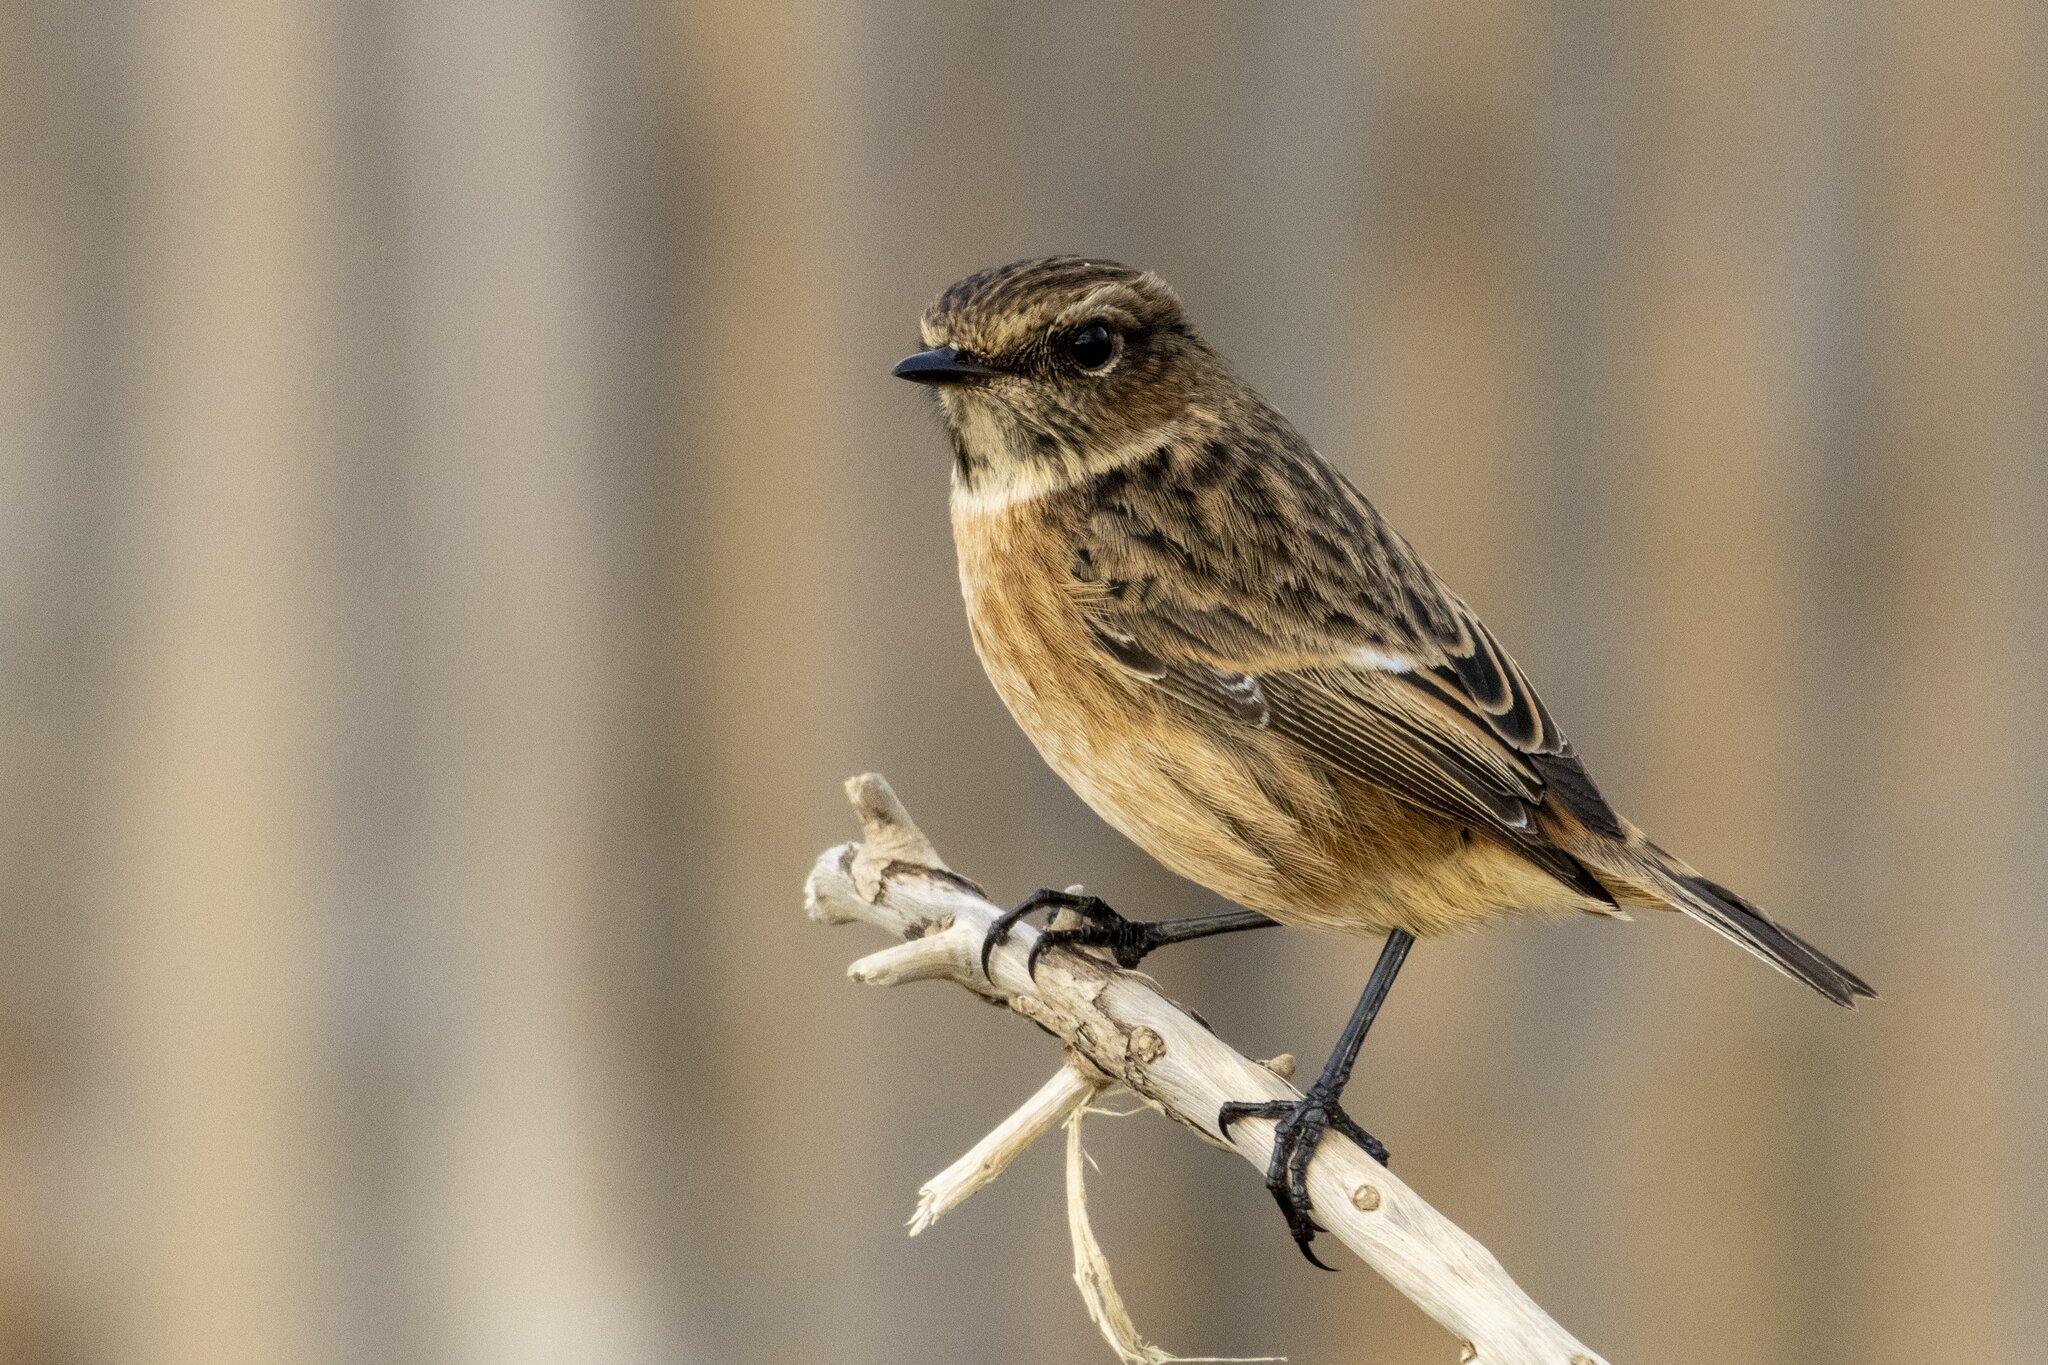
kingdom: Animalia
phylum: Chordata
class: Aves
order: Passeriformes
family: Muscicapidae
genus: Saxicola
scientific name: Saxicola rubicola
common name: European stonechat
